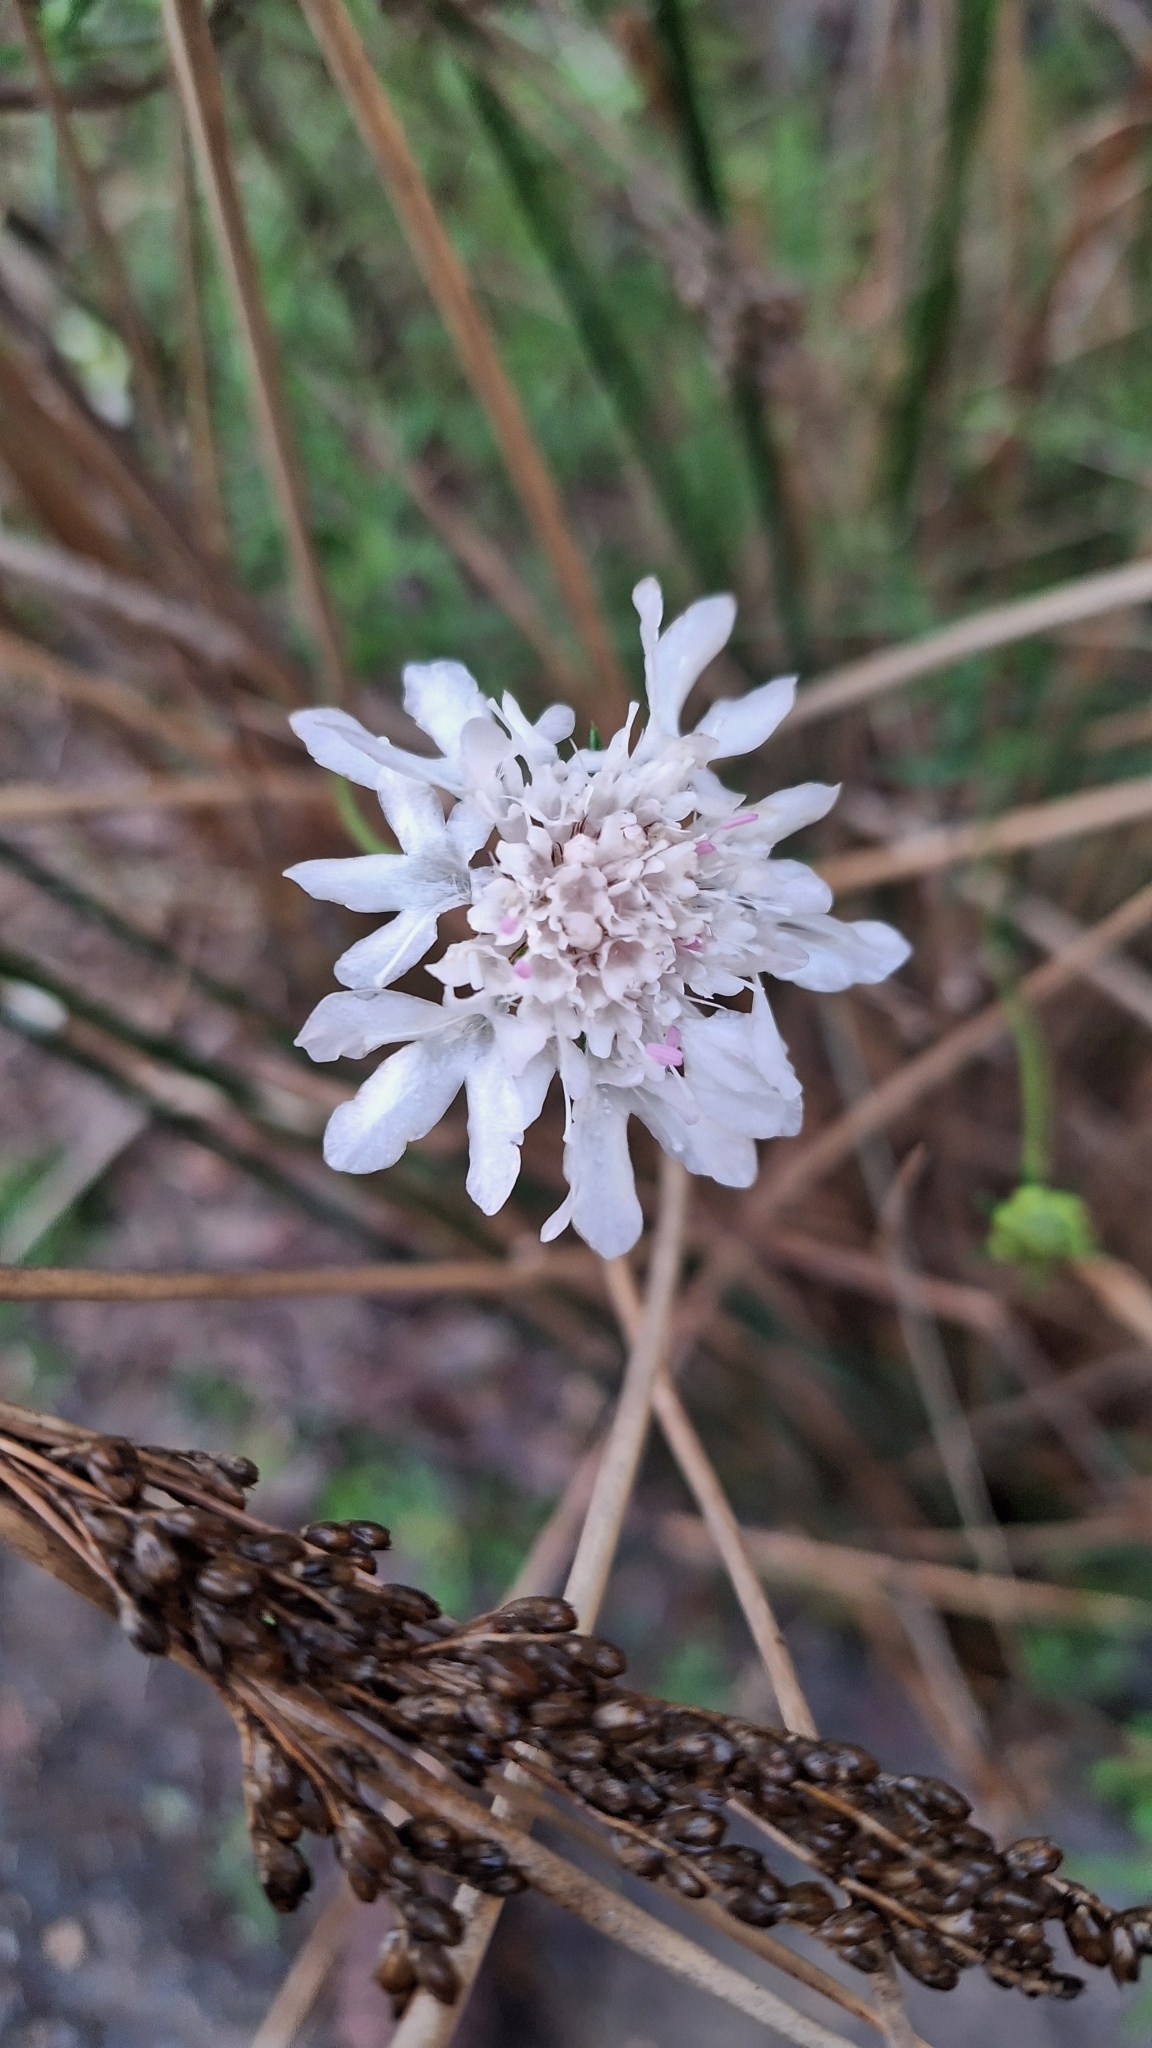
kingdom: Plantae
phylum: Tracheophyta
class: Magnoliopsida
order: Dipsacales
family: Caprifoliaceae
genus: Sixalix
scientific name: Sixalix atropurpurea
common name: Sweet scabious
